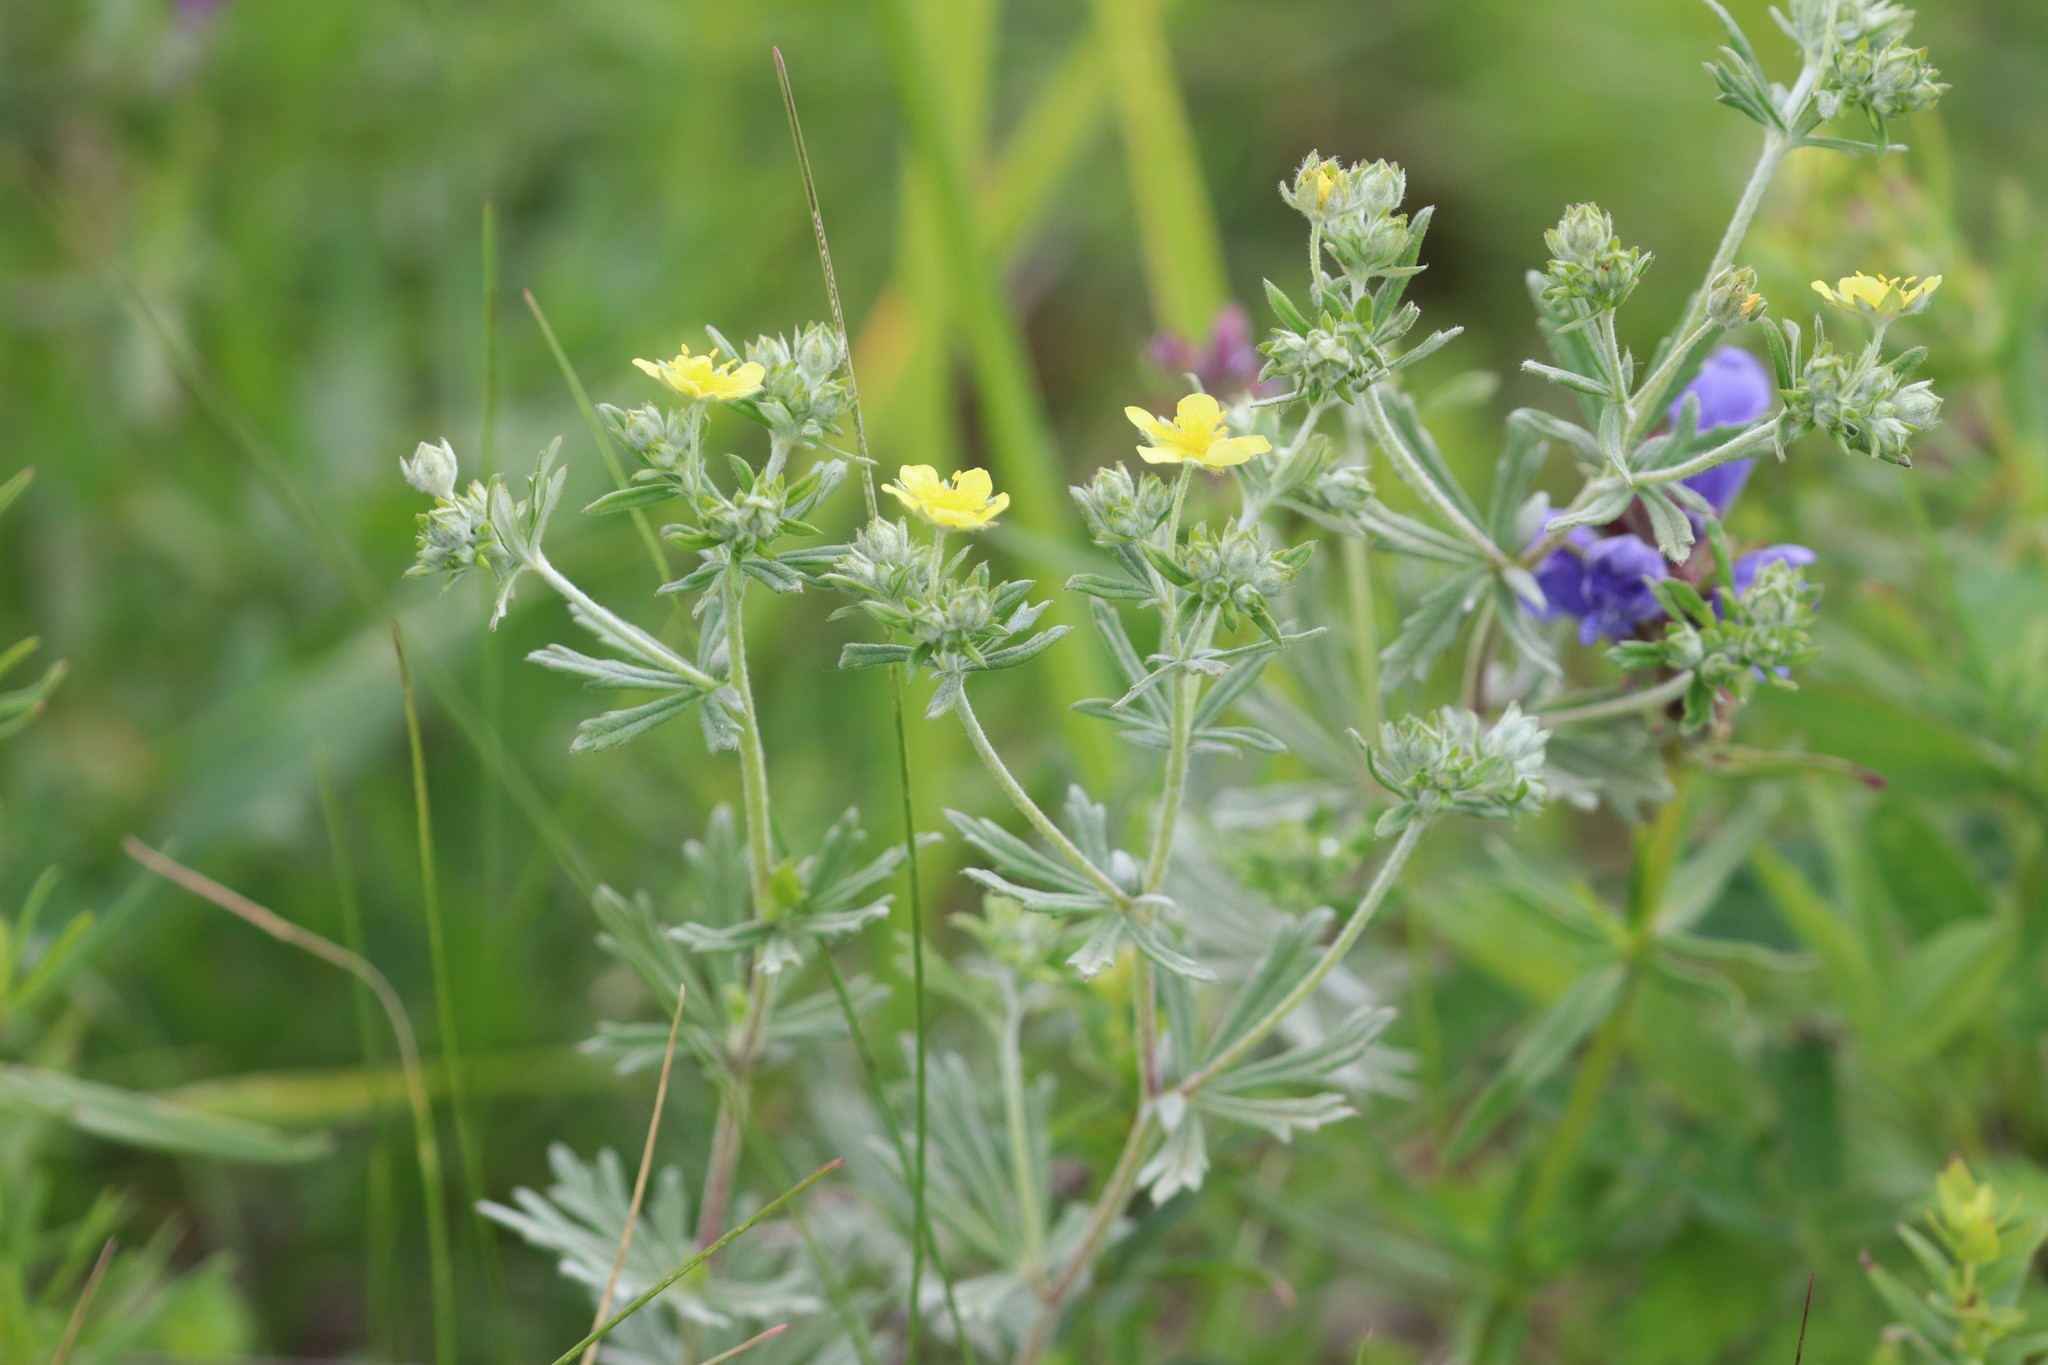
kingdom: Plantae
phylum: Tracheophyta
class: Magnoliopsida
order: Rosales
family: Rosaceae
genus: Potentilla
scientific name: Potentilla argentea
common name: Hoary cinquefoil
